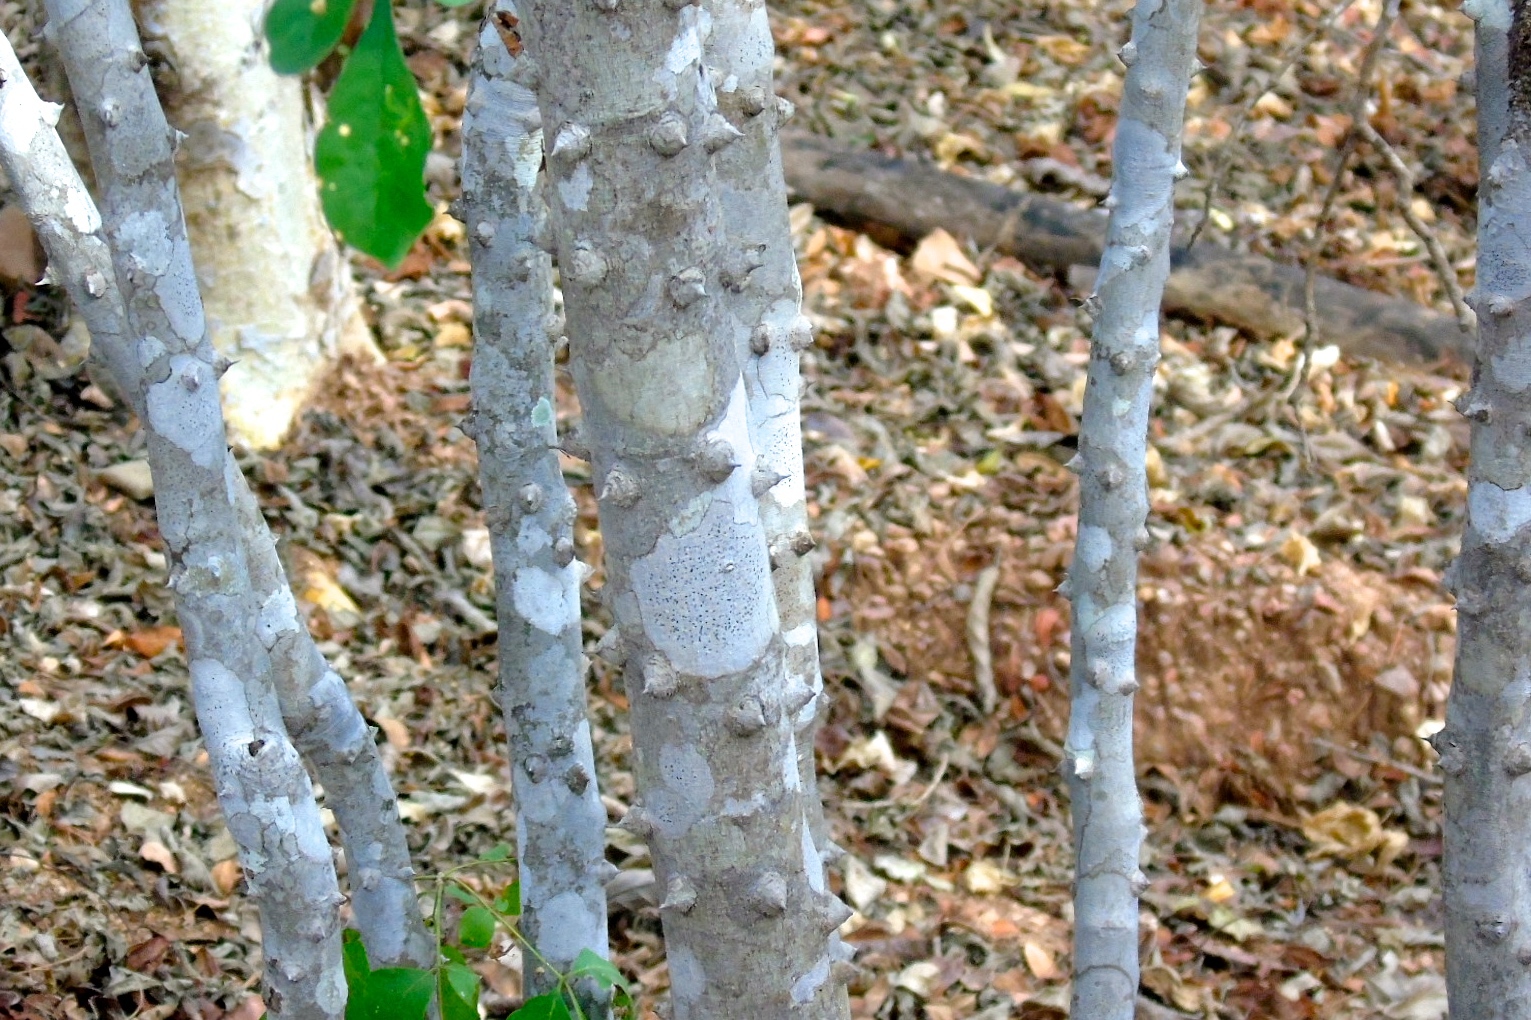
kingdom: Plantae
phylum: Tracheophyta
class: Magnoliopsida
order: Sapindales
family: Rutaceae
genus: Zanthoxylum
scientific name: Zanthoxylum arborescens
